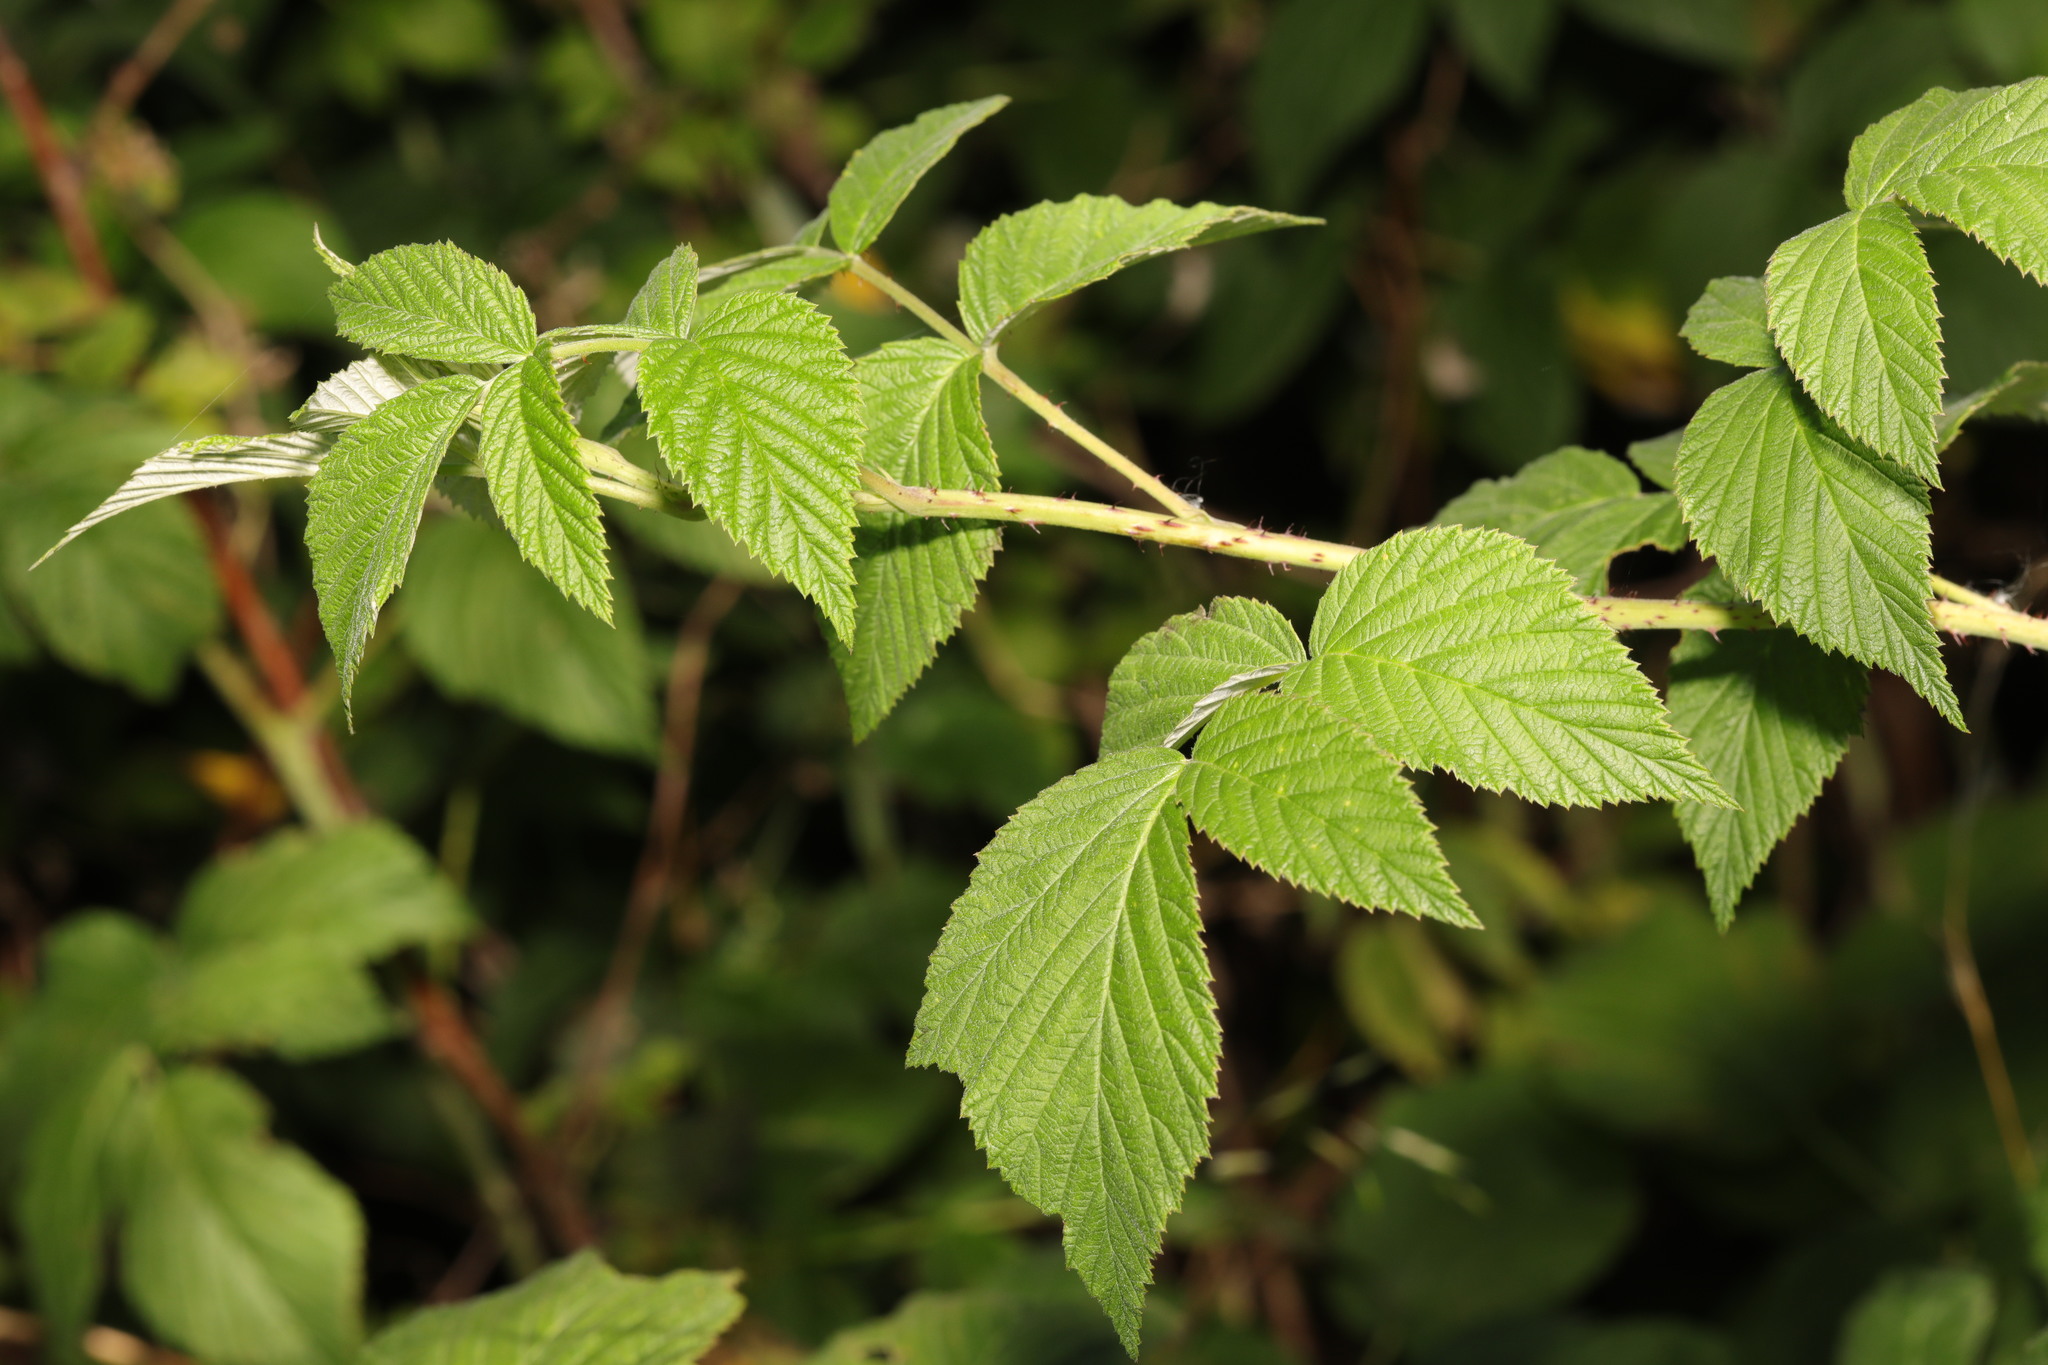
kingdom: Plantae
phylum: Tracheophyta
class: Magnoliopsida
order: Rosales
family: Rosaceae
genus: Rubus
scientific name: Rubus idaeus
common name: Raspberry
